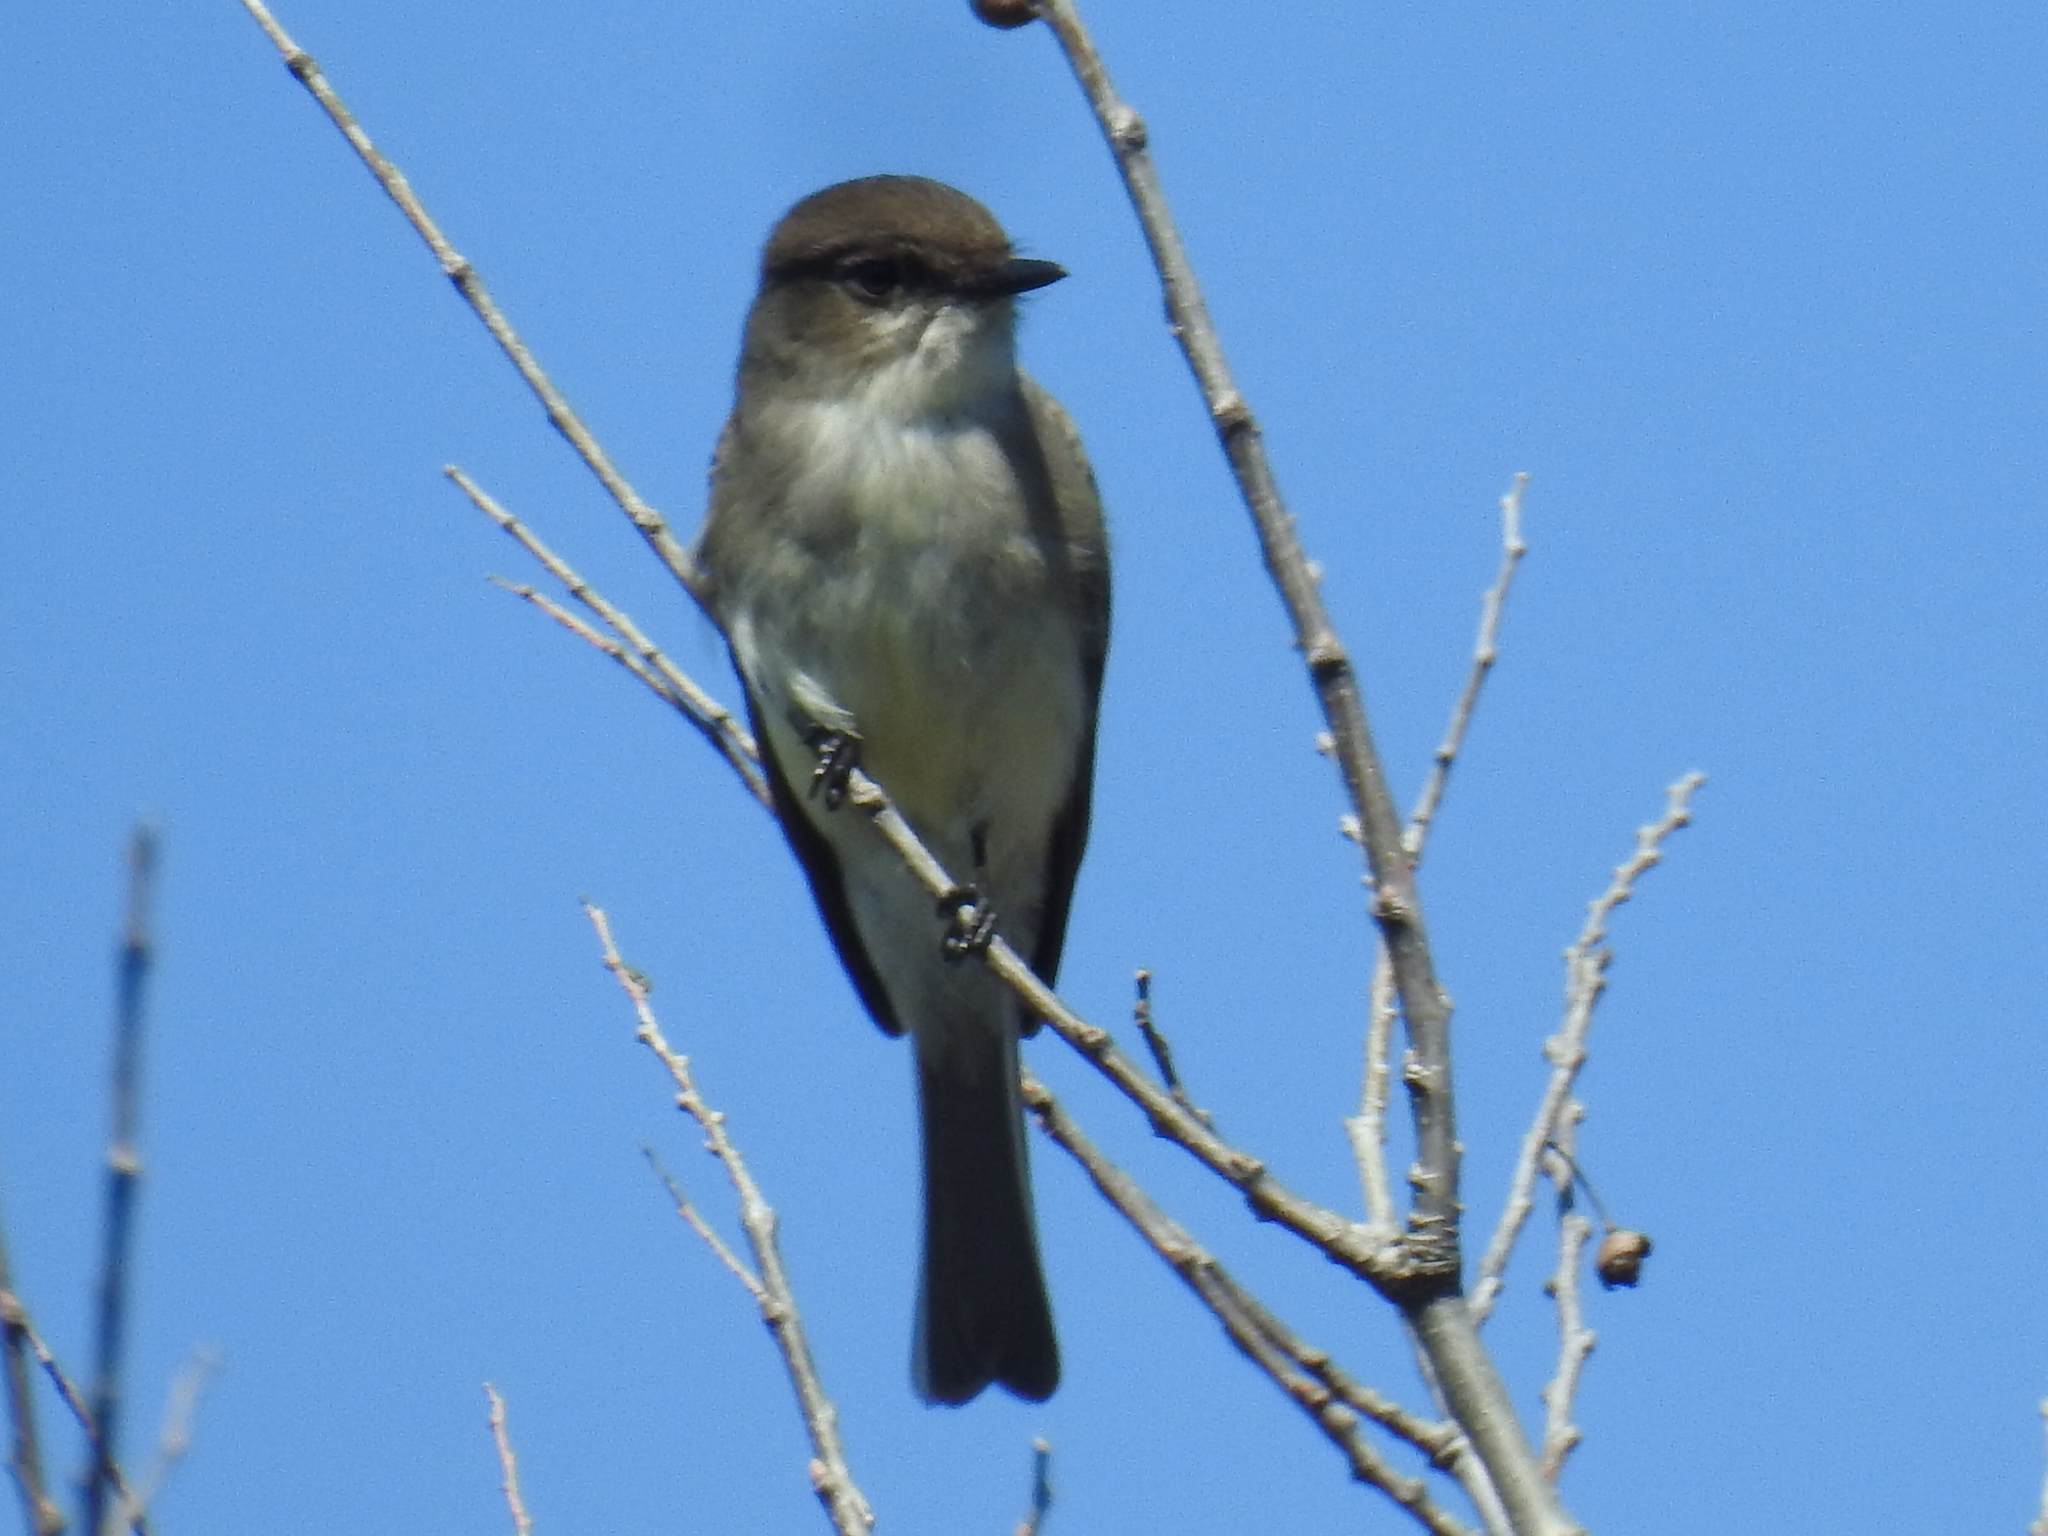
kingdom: Animalia
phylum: Chordata
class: Aves
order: Passeriformes
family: Tyrannidae
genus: Sayornis
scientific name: Sayornis phoebe
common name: Eastern phoebe
